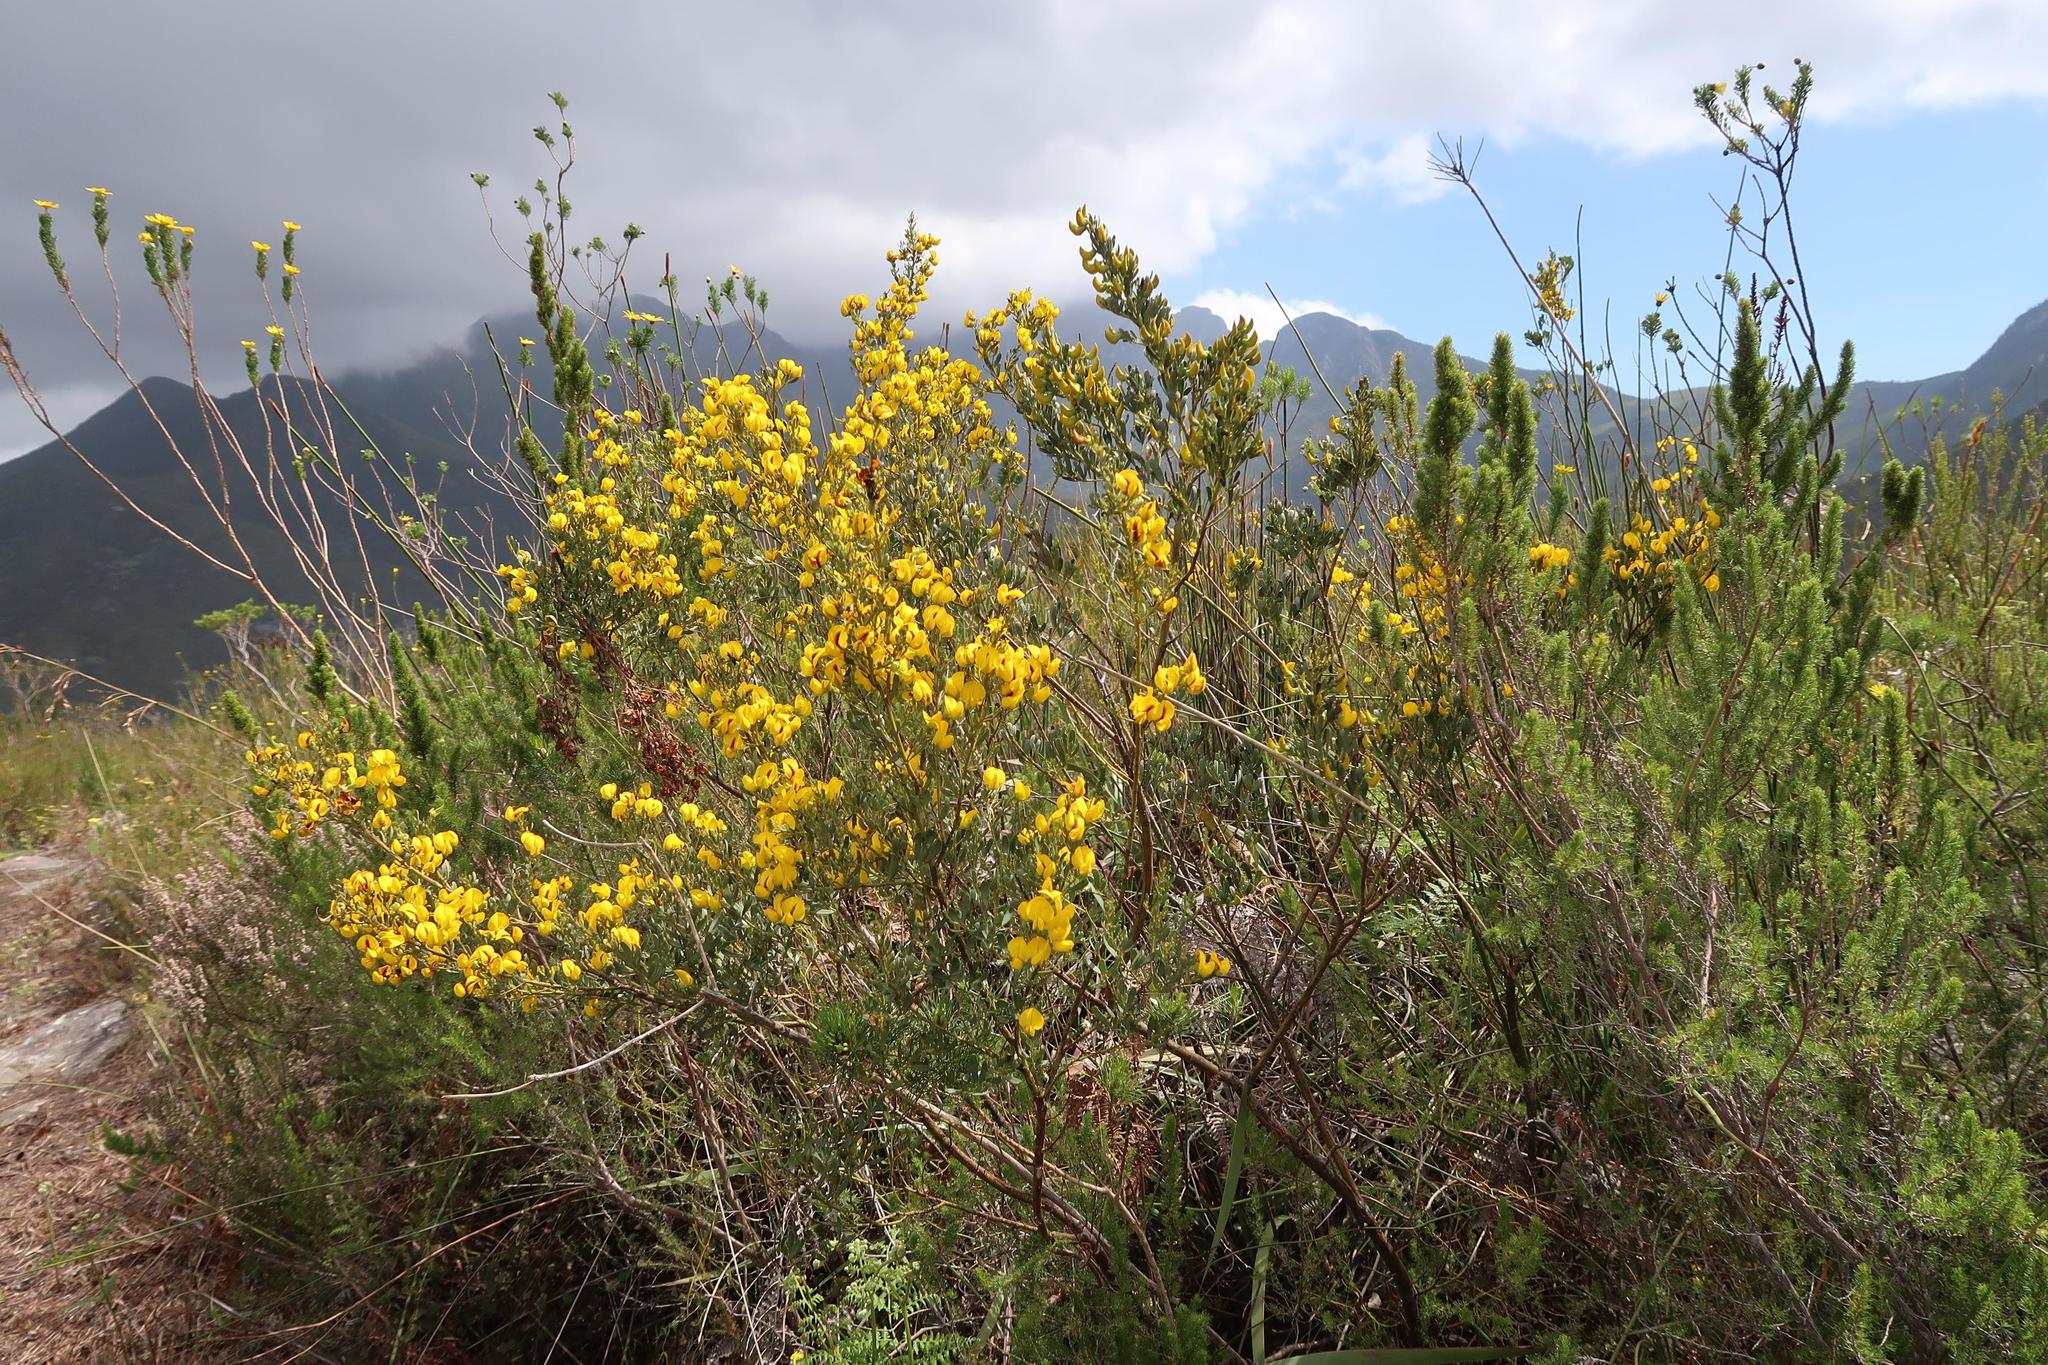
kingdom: Plantae
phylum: Tracheophyta
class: Magnoliopsida
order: Fabales
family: Fabaceae
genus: Cyclopia
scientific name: Cyclopia subternata
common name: Honeybush tea
